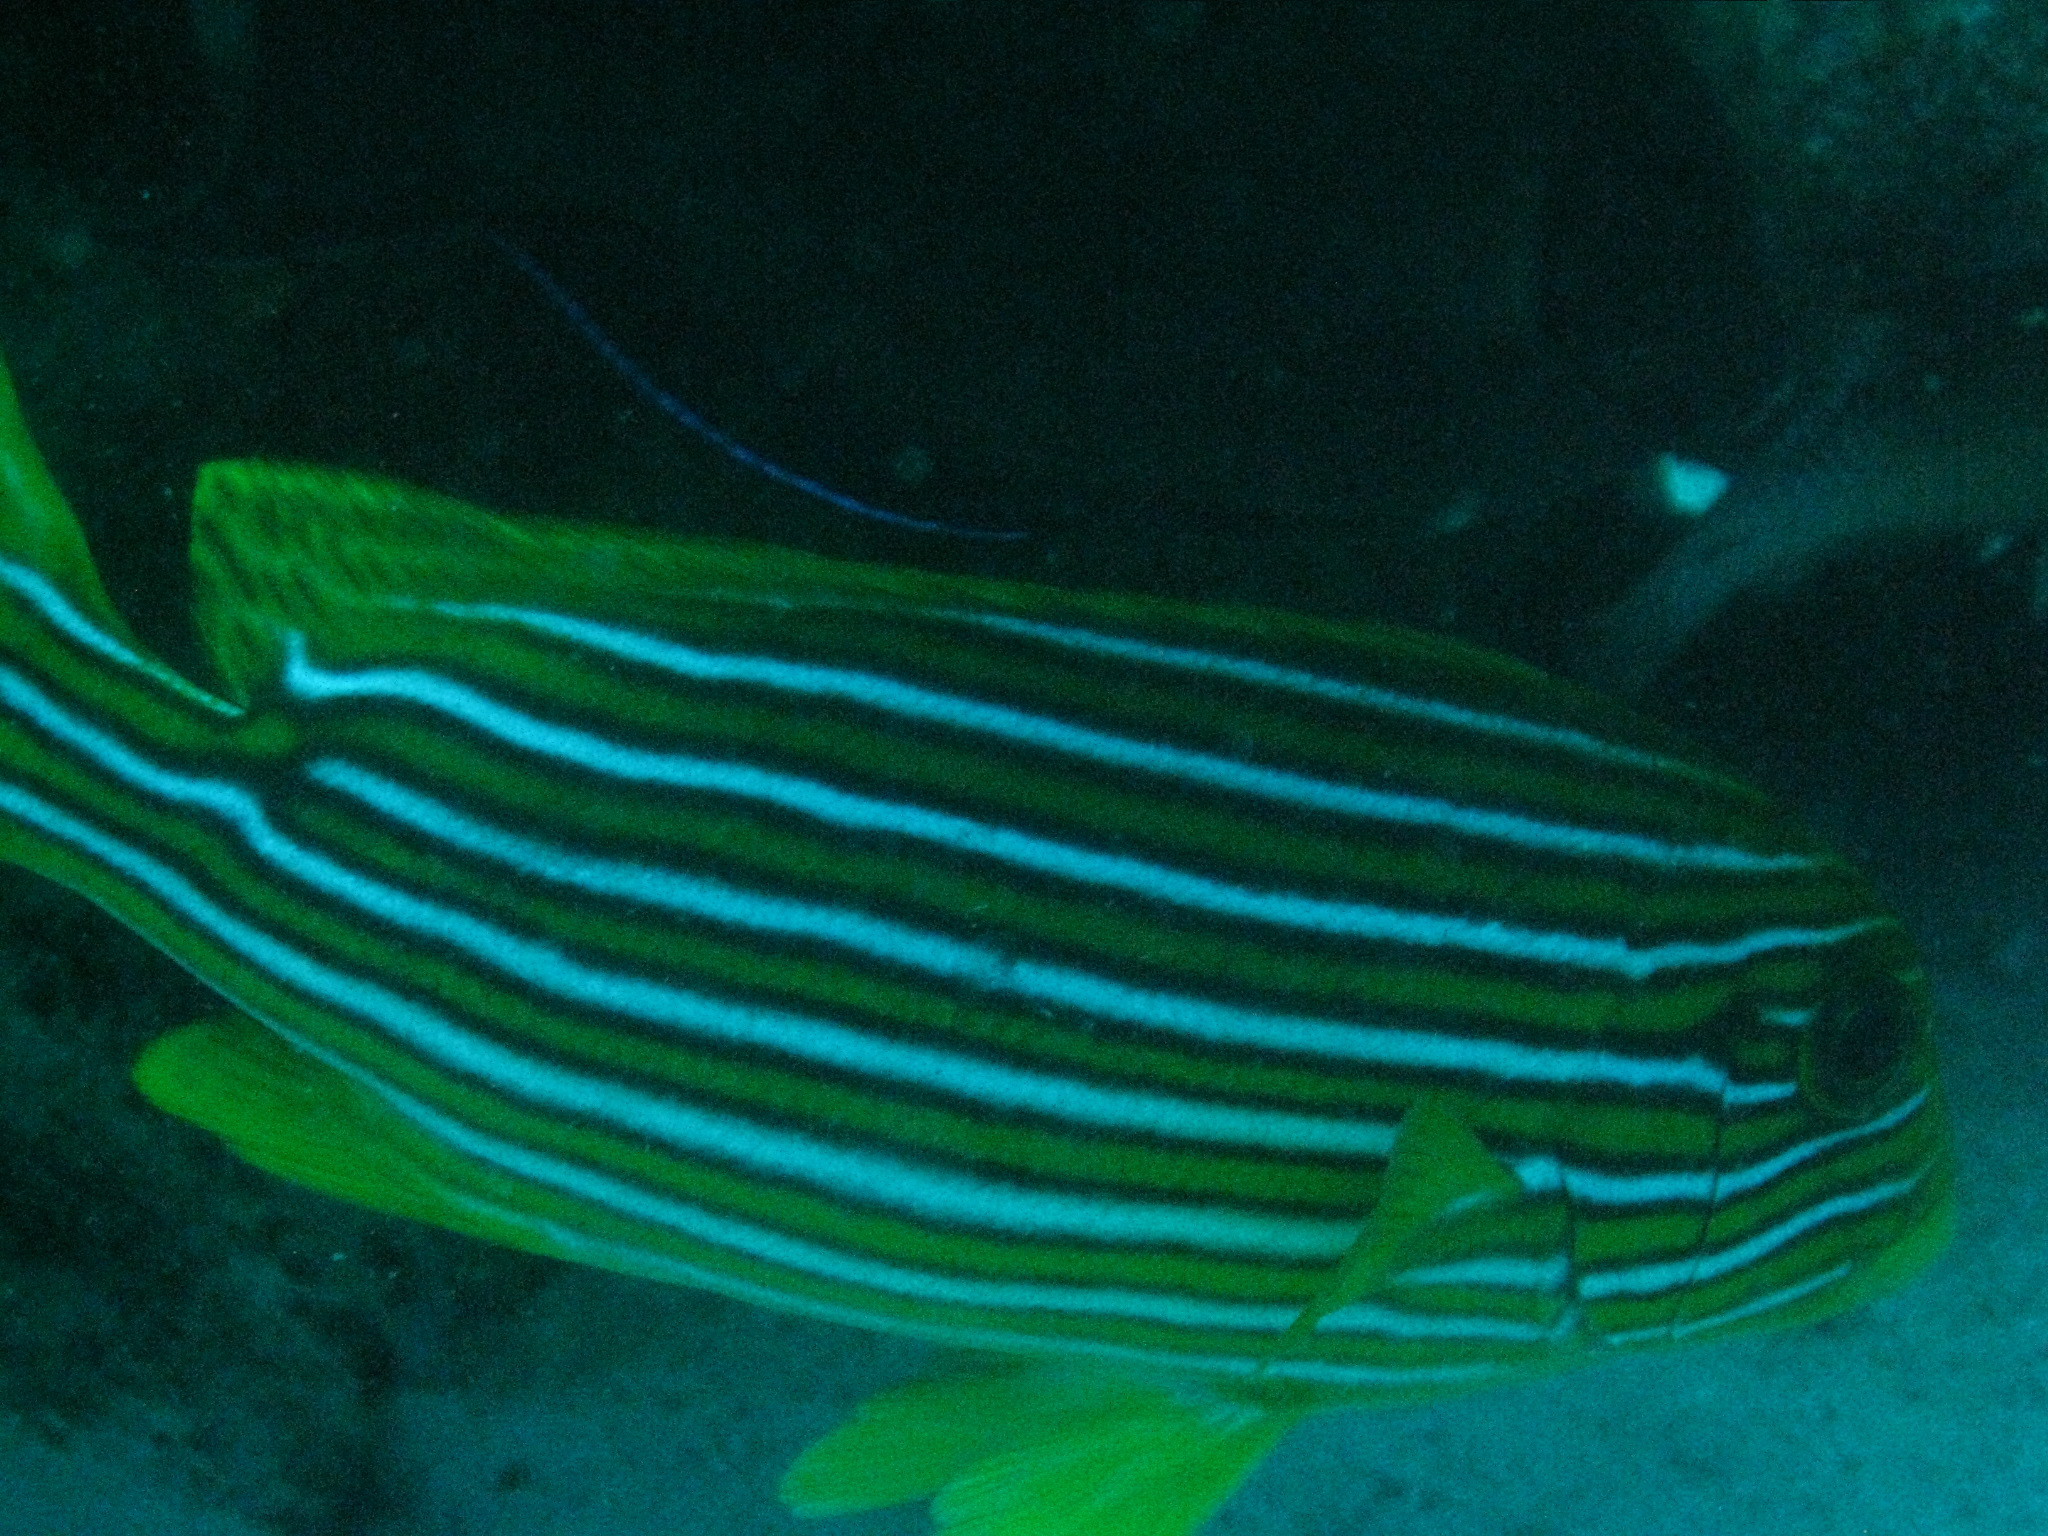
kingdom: Animalia
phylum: Chordata
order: Perciformes
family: Haemulidae
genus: Plectorhinchus
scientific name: Plectorhinchus polytaenia
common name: Ribboned sweetlips
